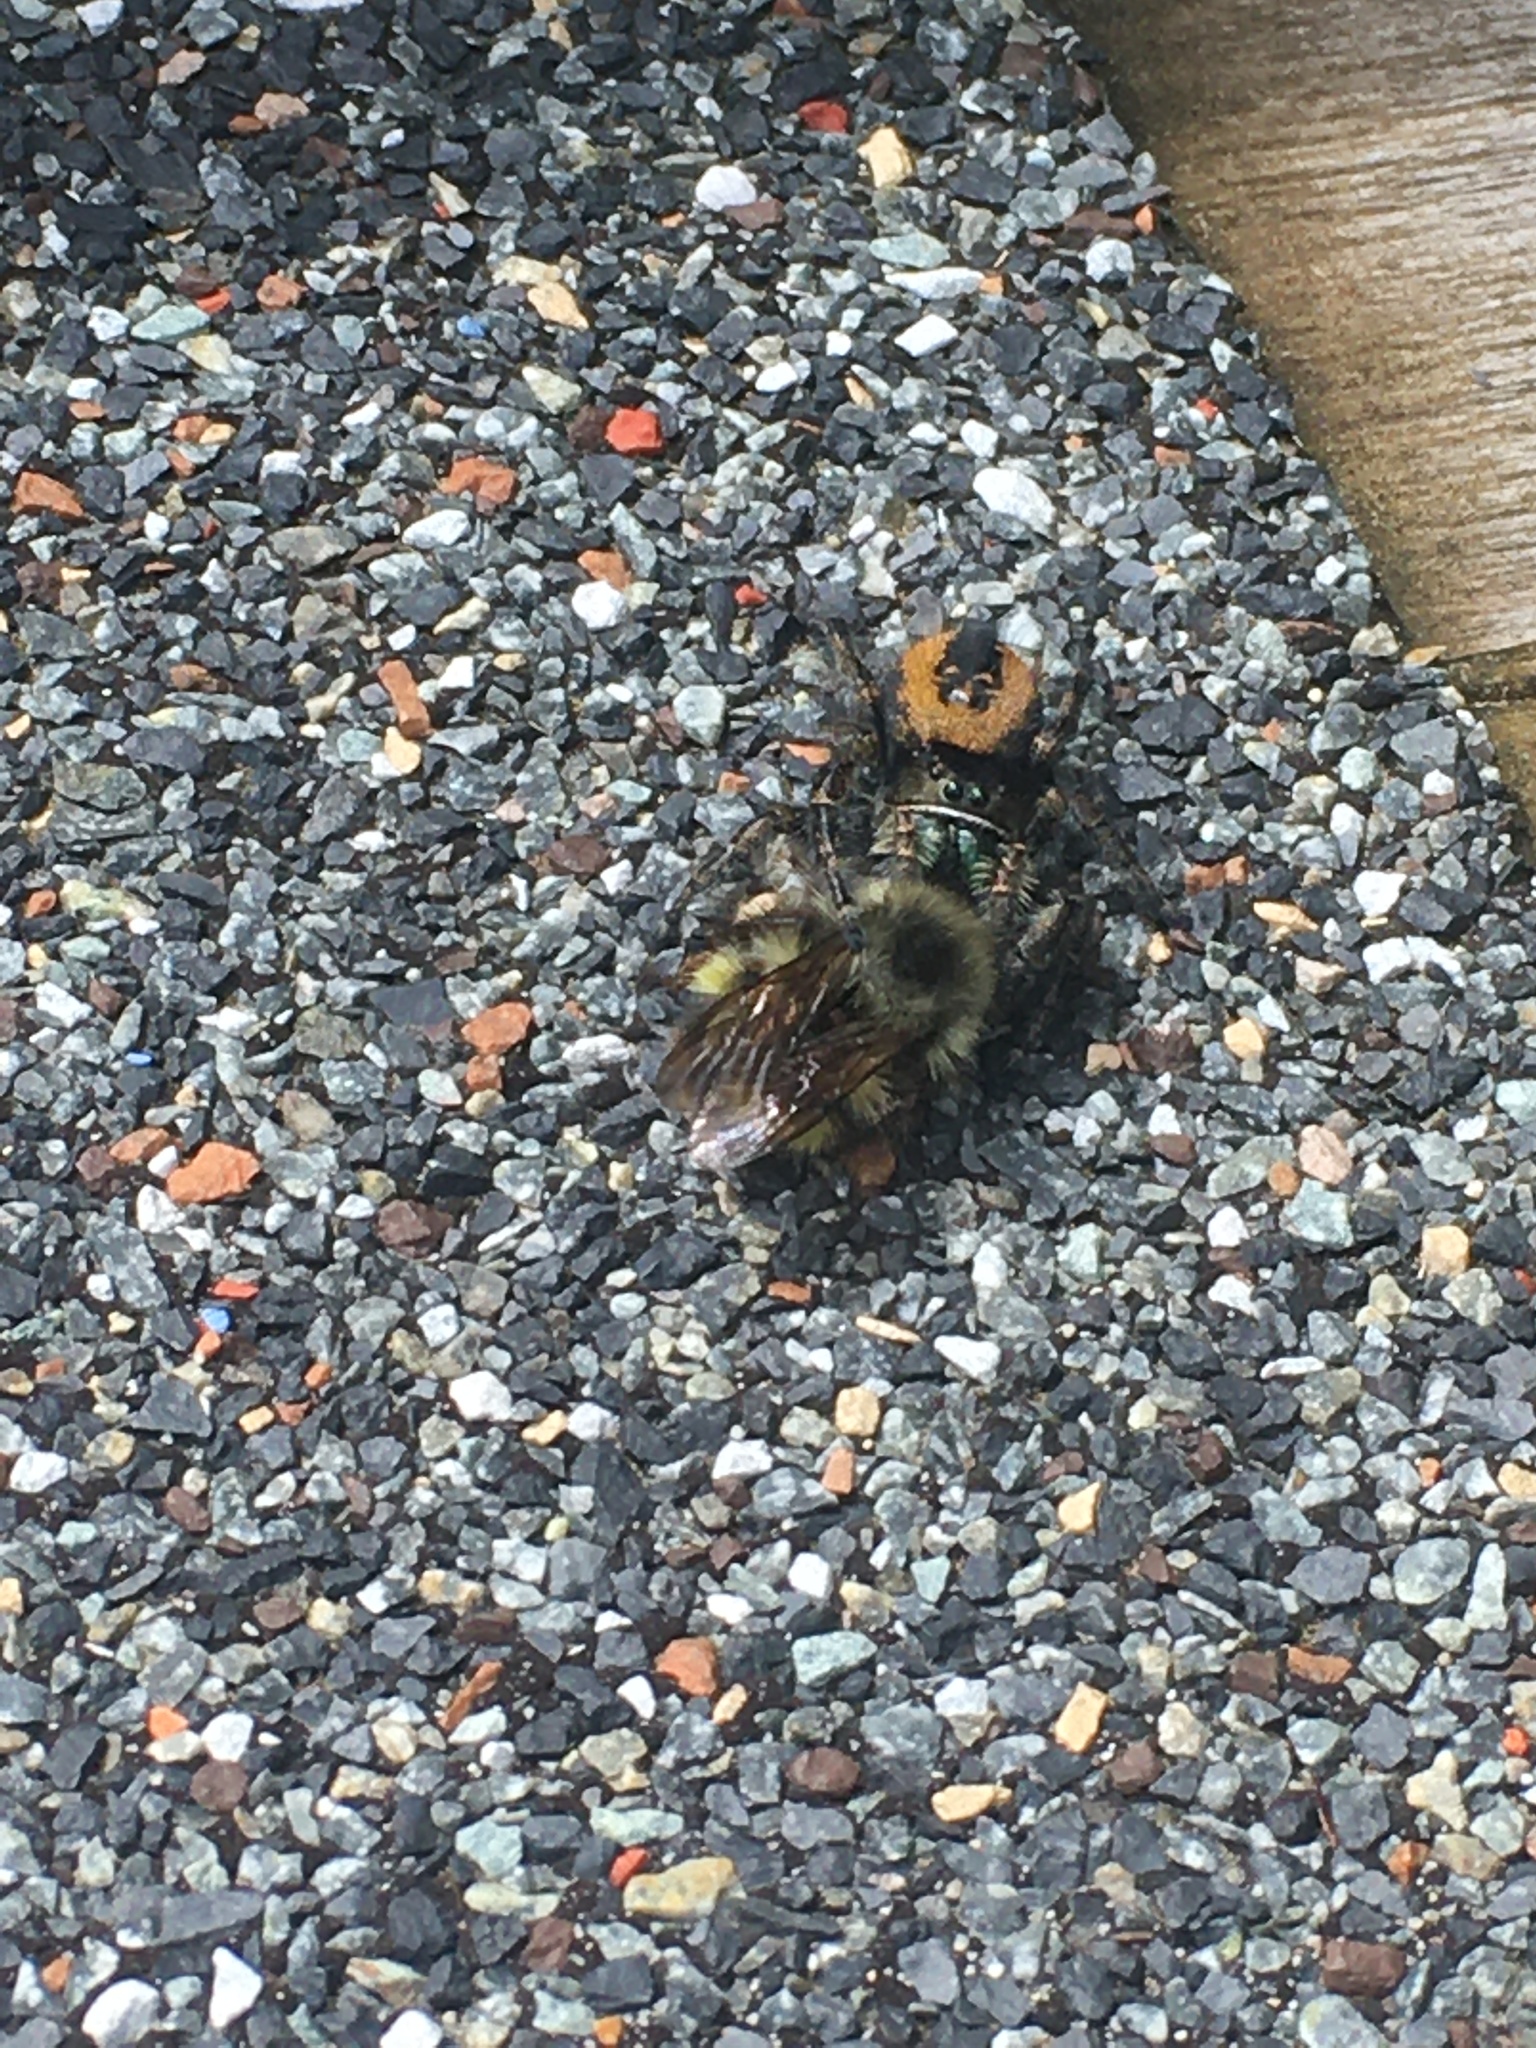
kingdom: Animalia
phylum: Arthropoda
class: Arachnida
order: Araneae
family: Salticidae
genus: Phidippus
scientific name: Phidippus johnsoni
